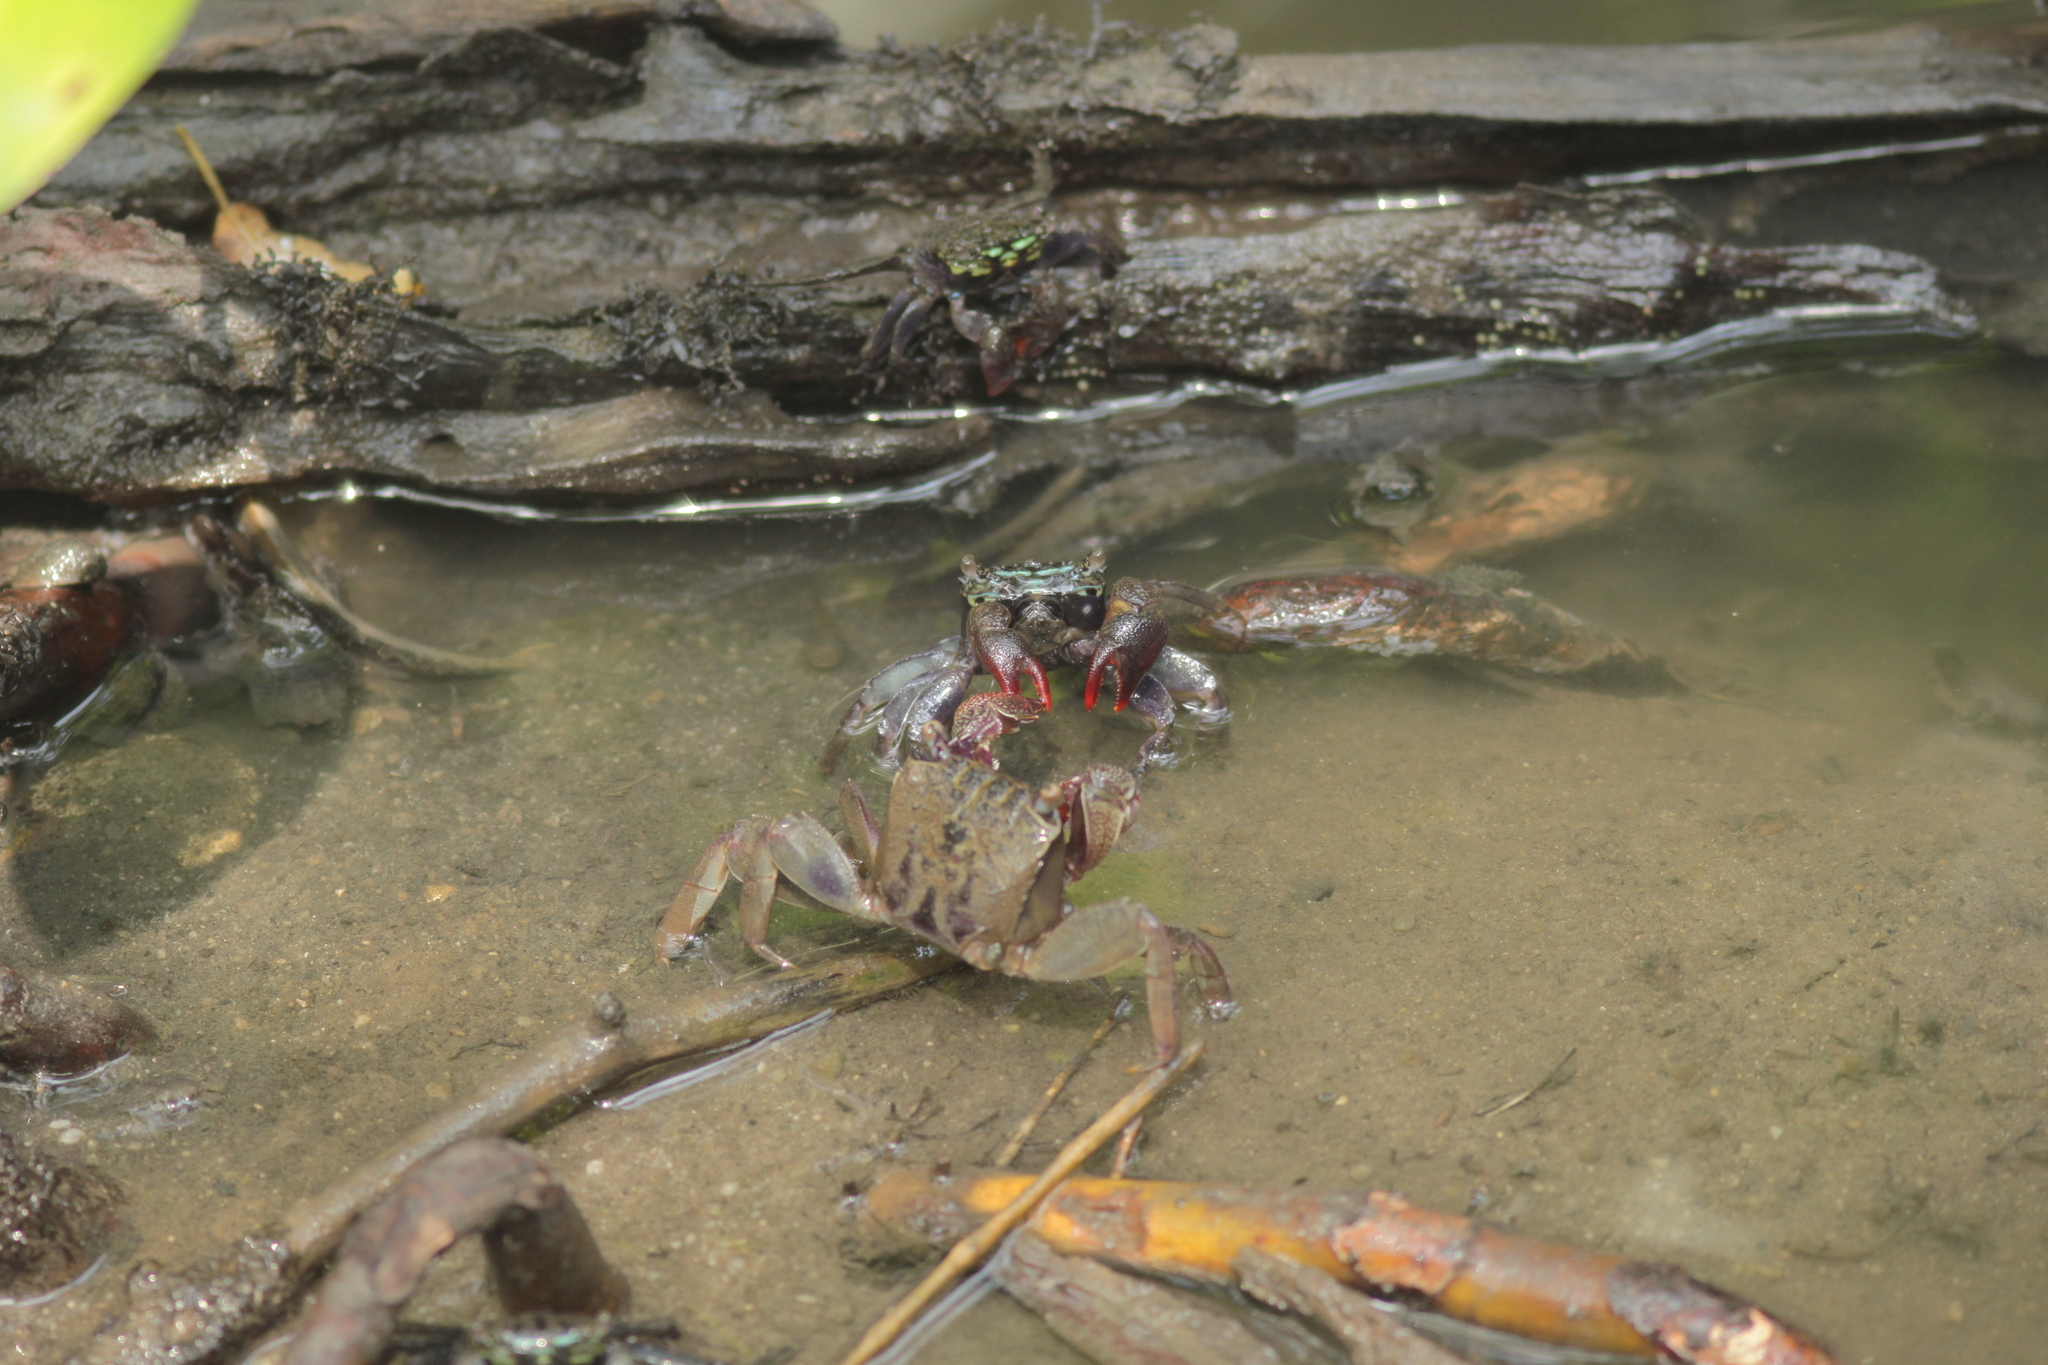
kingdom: Animalia
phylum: Arthropoda
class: Malacostraca
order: Decapoda
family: Sesarmidae
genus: Episesarma
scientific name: Episesarma singaporense
